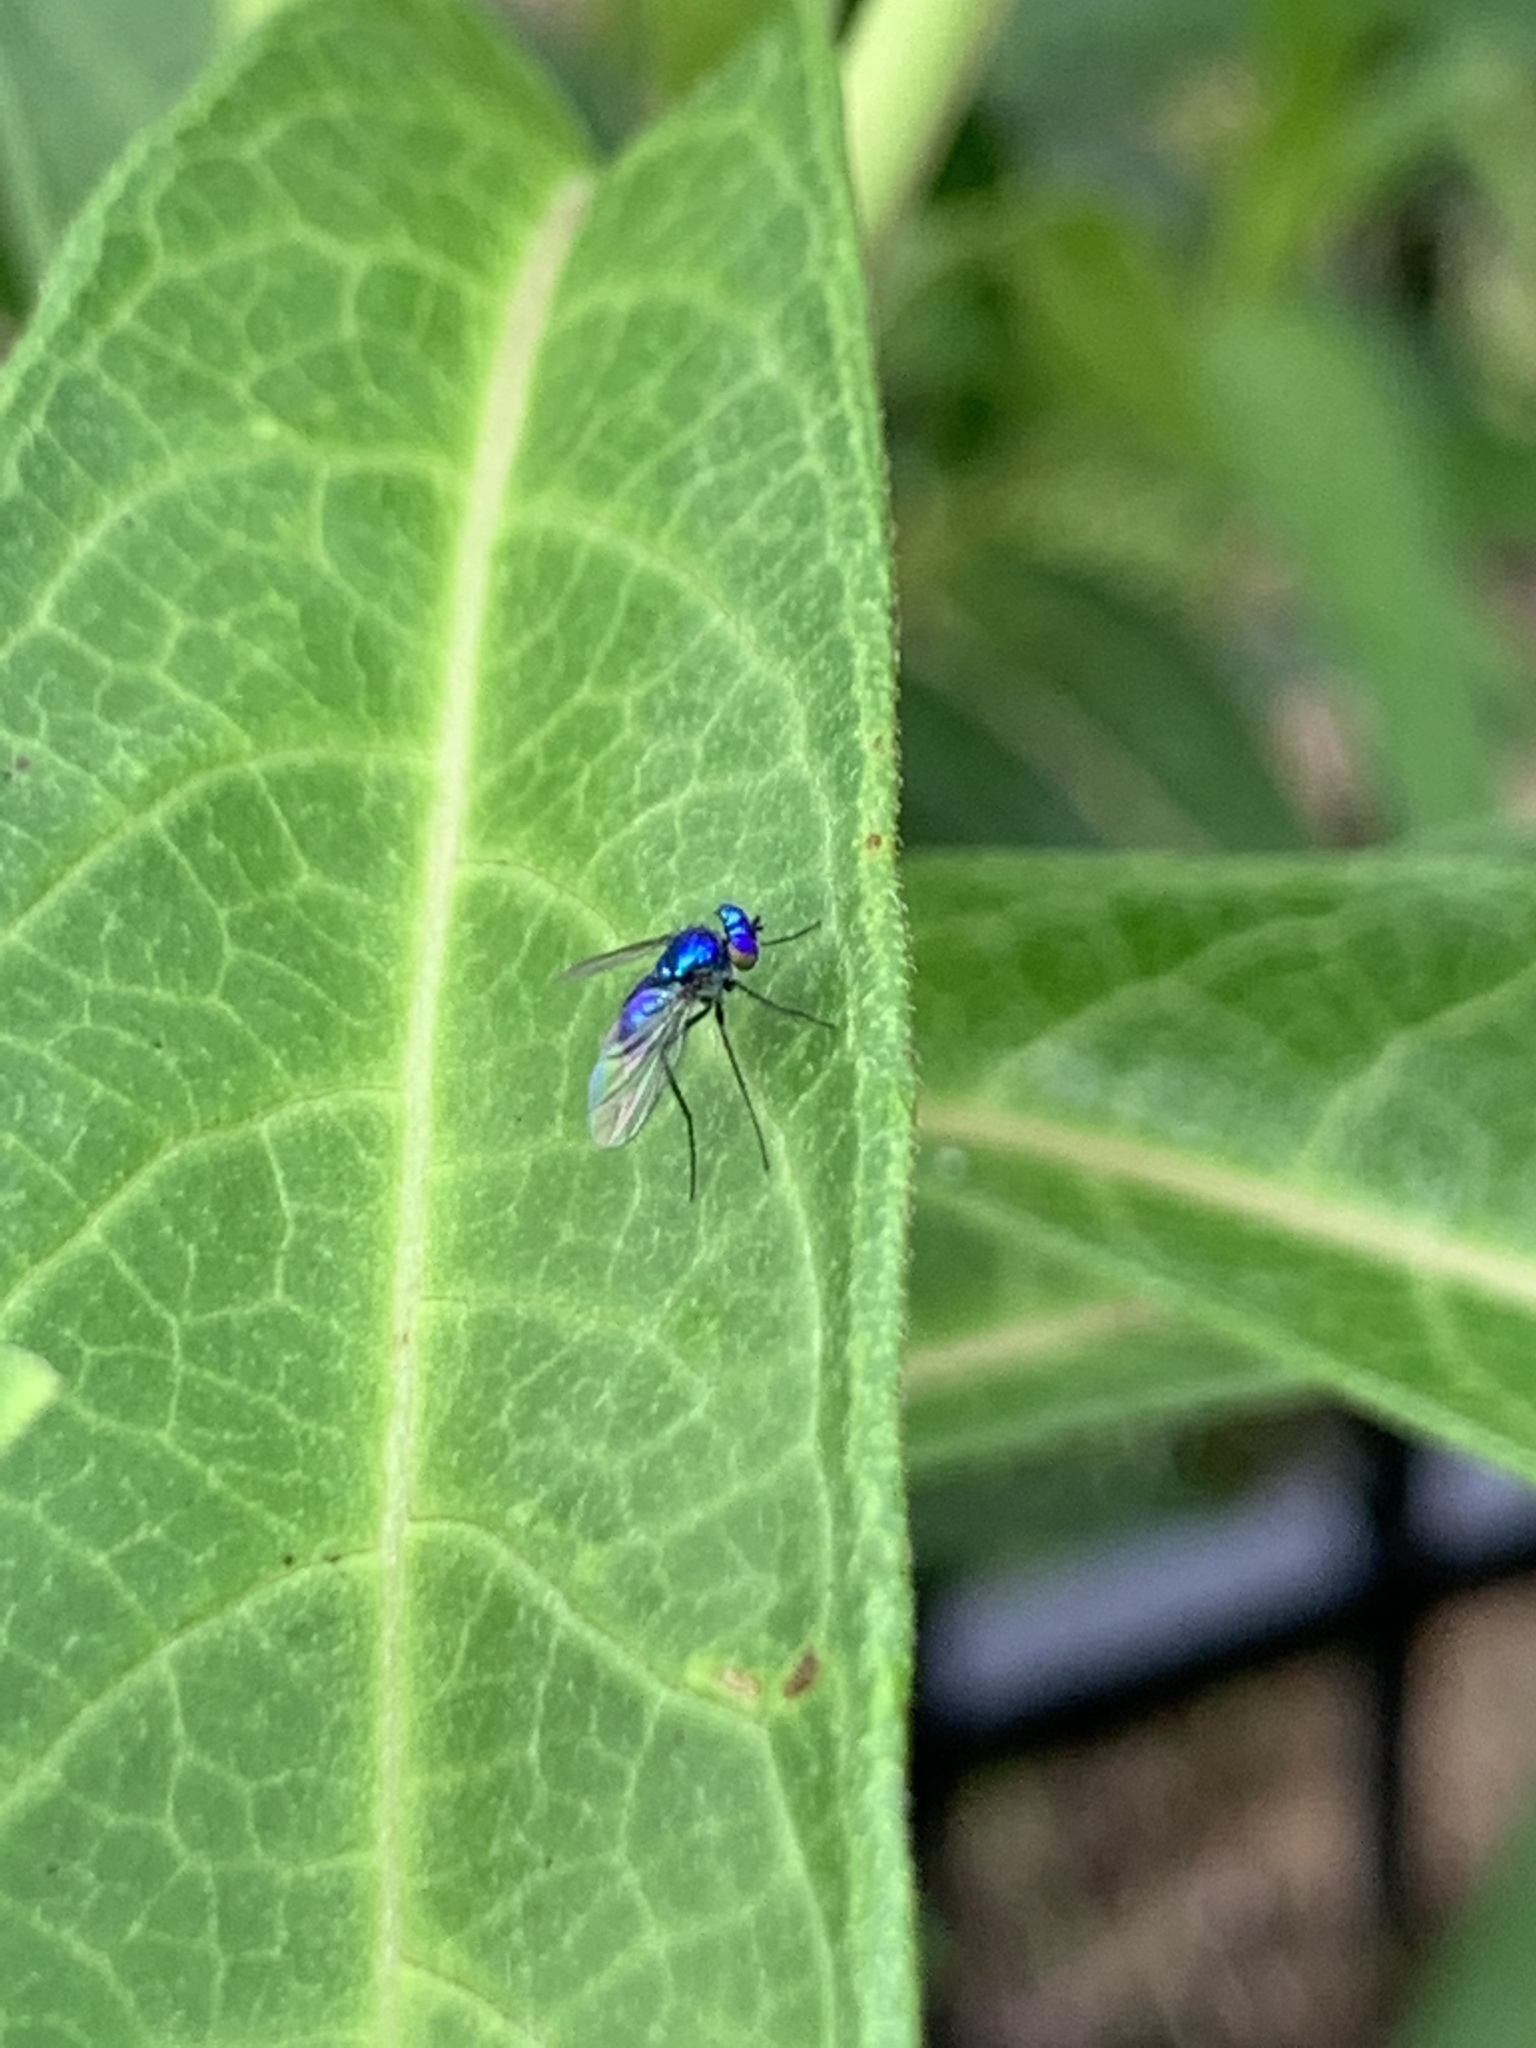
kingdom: Animalia
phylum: Arthropoda
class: Insecta
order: Diptera
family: Dolichopodidae
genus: Condylostylus
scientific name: Condylostylus mundus
